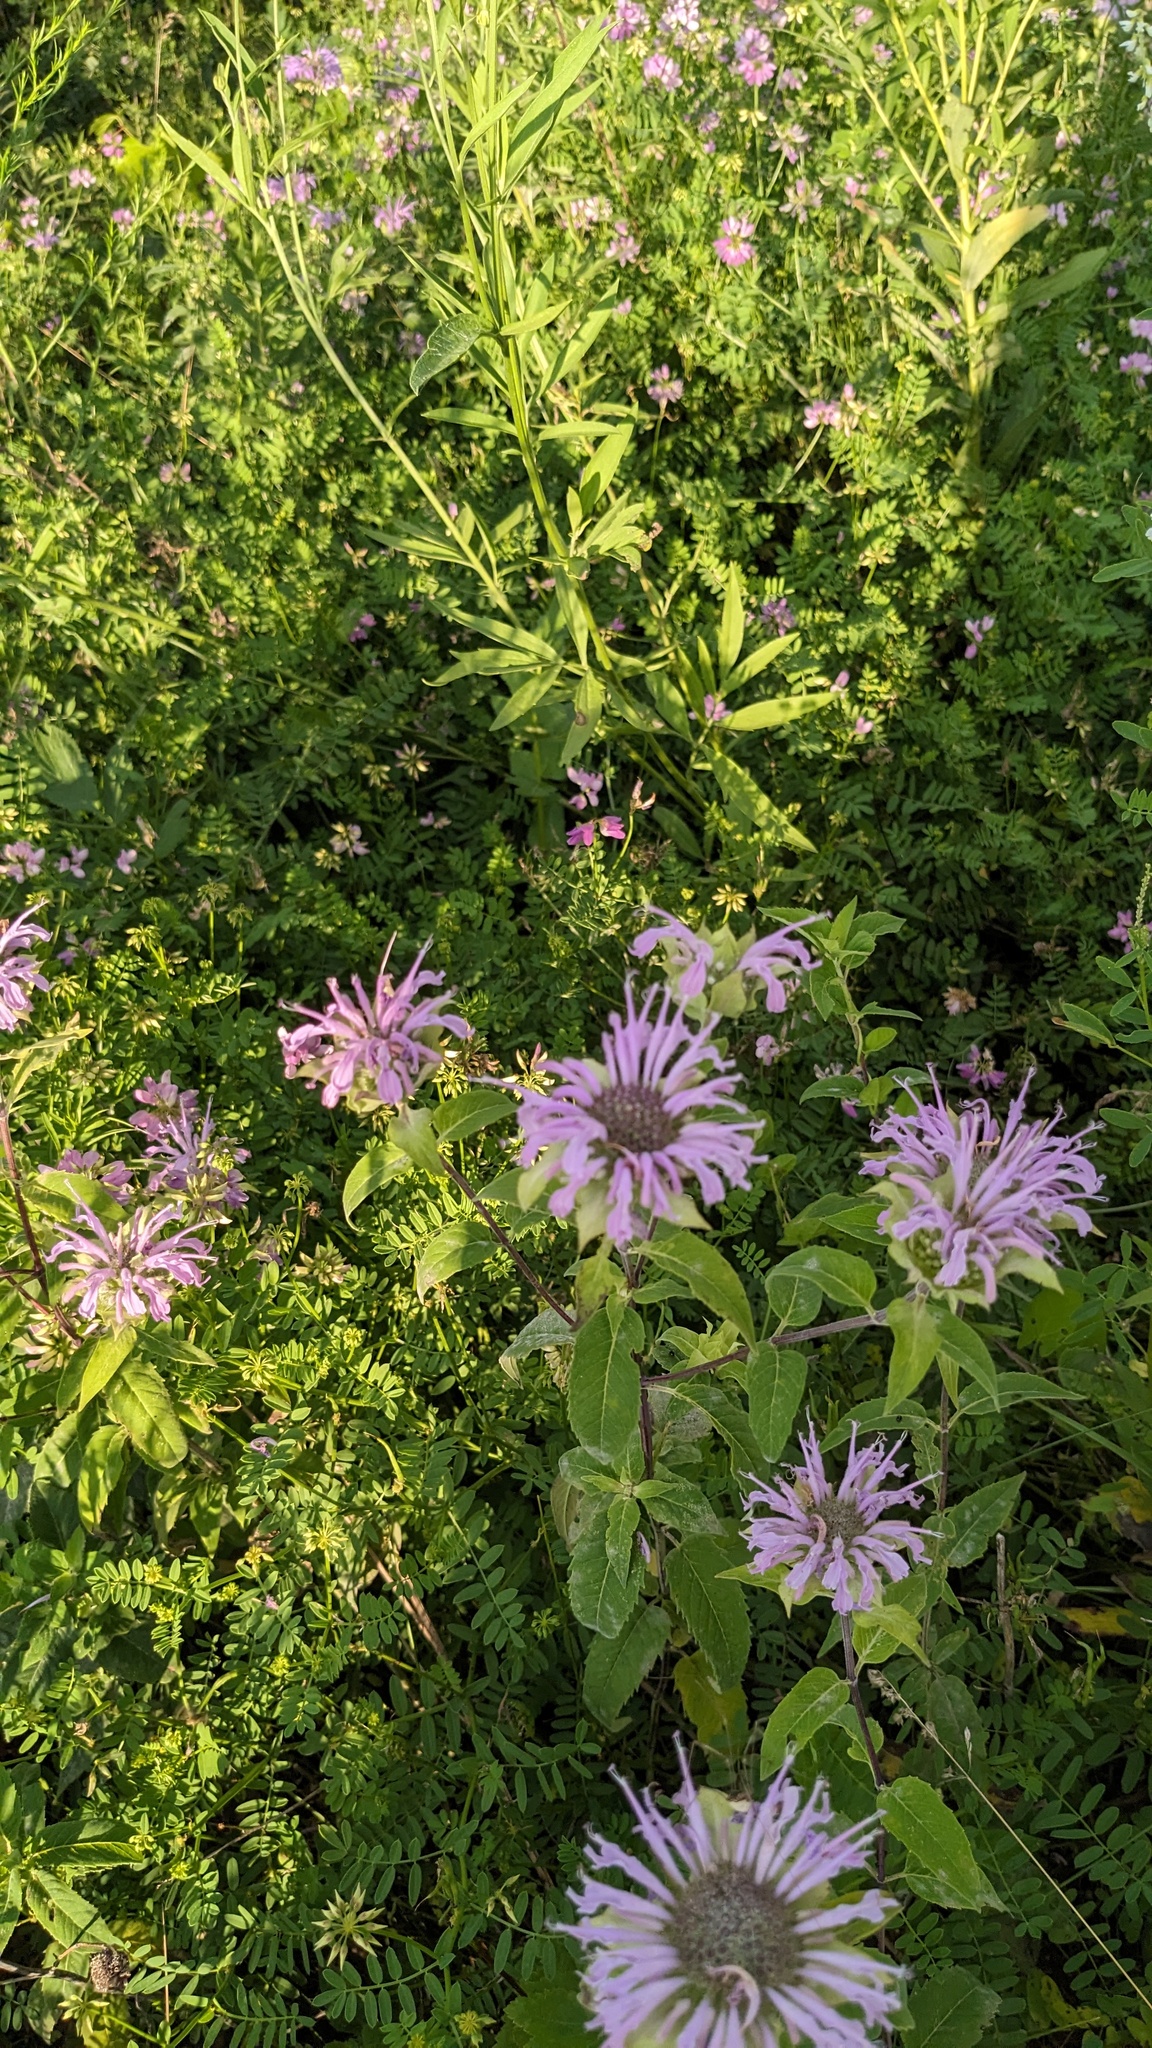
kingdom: Plantae
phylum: Tracheophyta
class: Magnoliopsida
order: Lamiales
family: Lamiaceae
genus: Monarda
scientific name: Monarda fistulosa
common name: Purple beebalm
